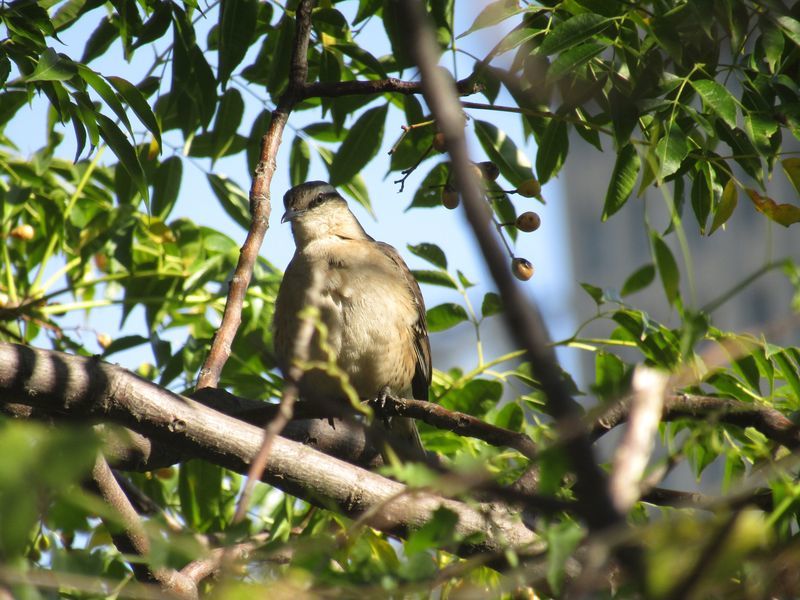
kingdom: Animalia
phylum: Chordata
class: Aves
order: Passeriformes
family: Mimidae
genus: Mimus
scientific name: Mimus saturninus
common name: Chalk-browed mockingbird
